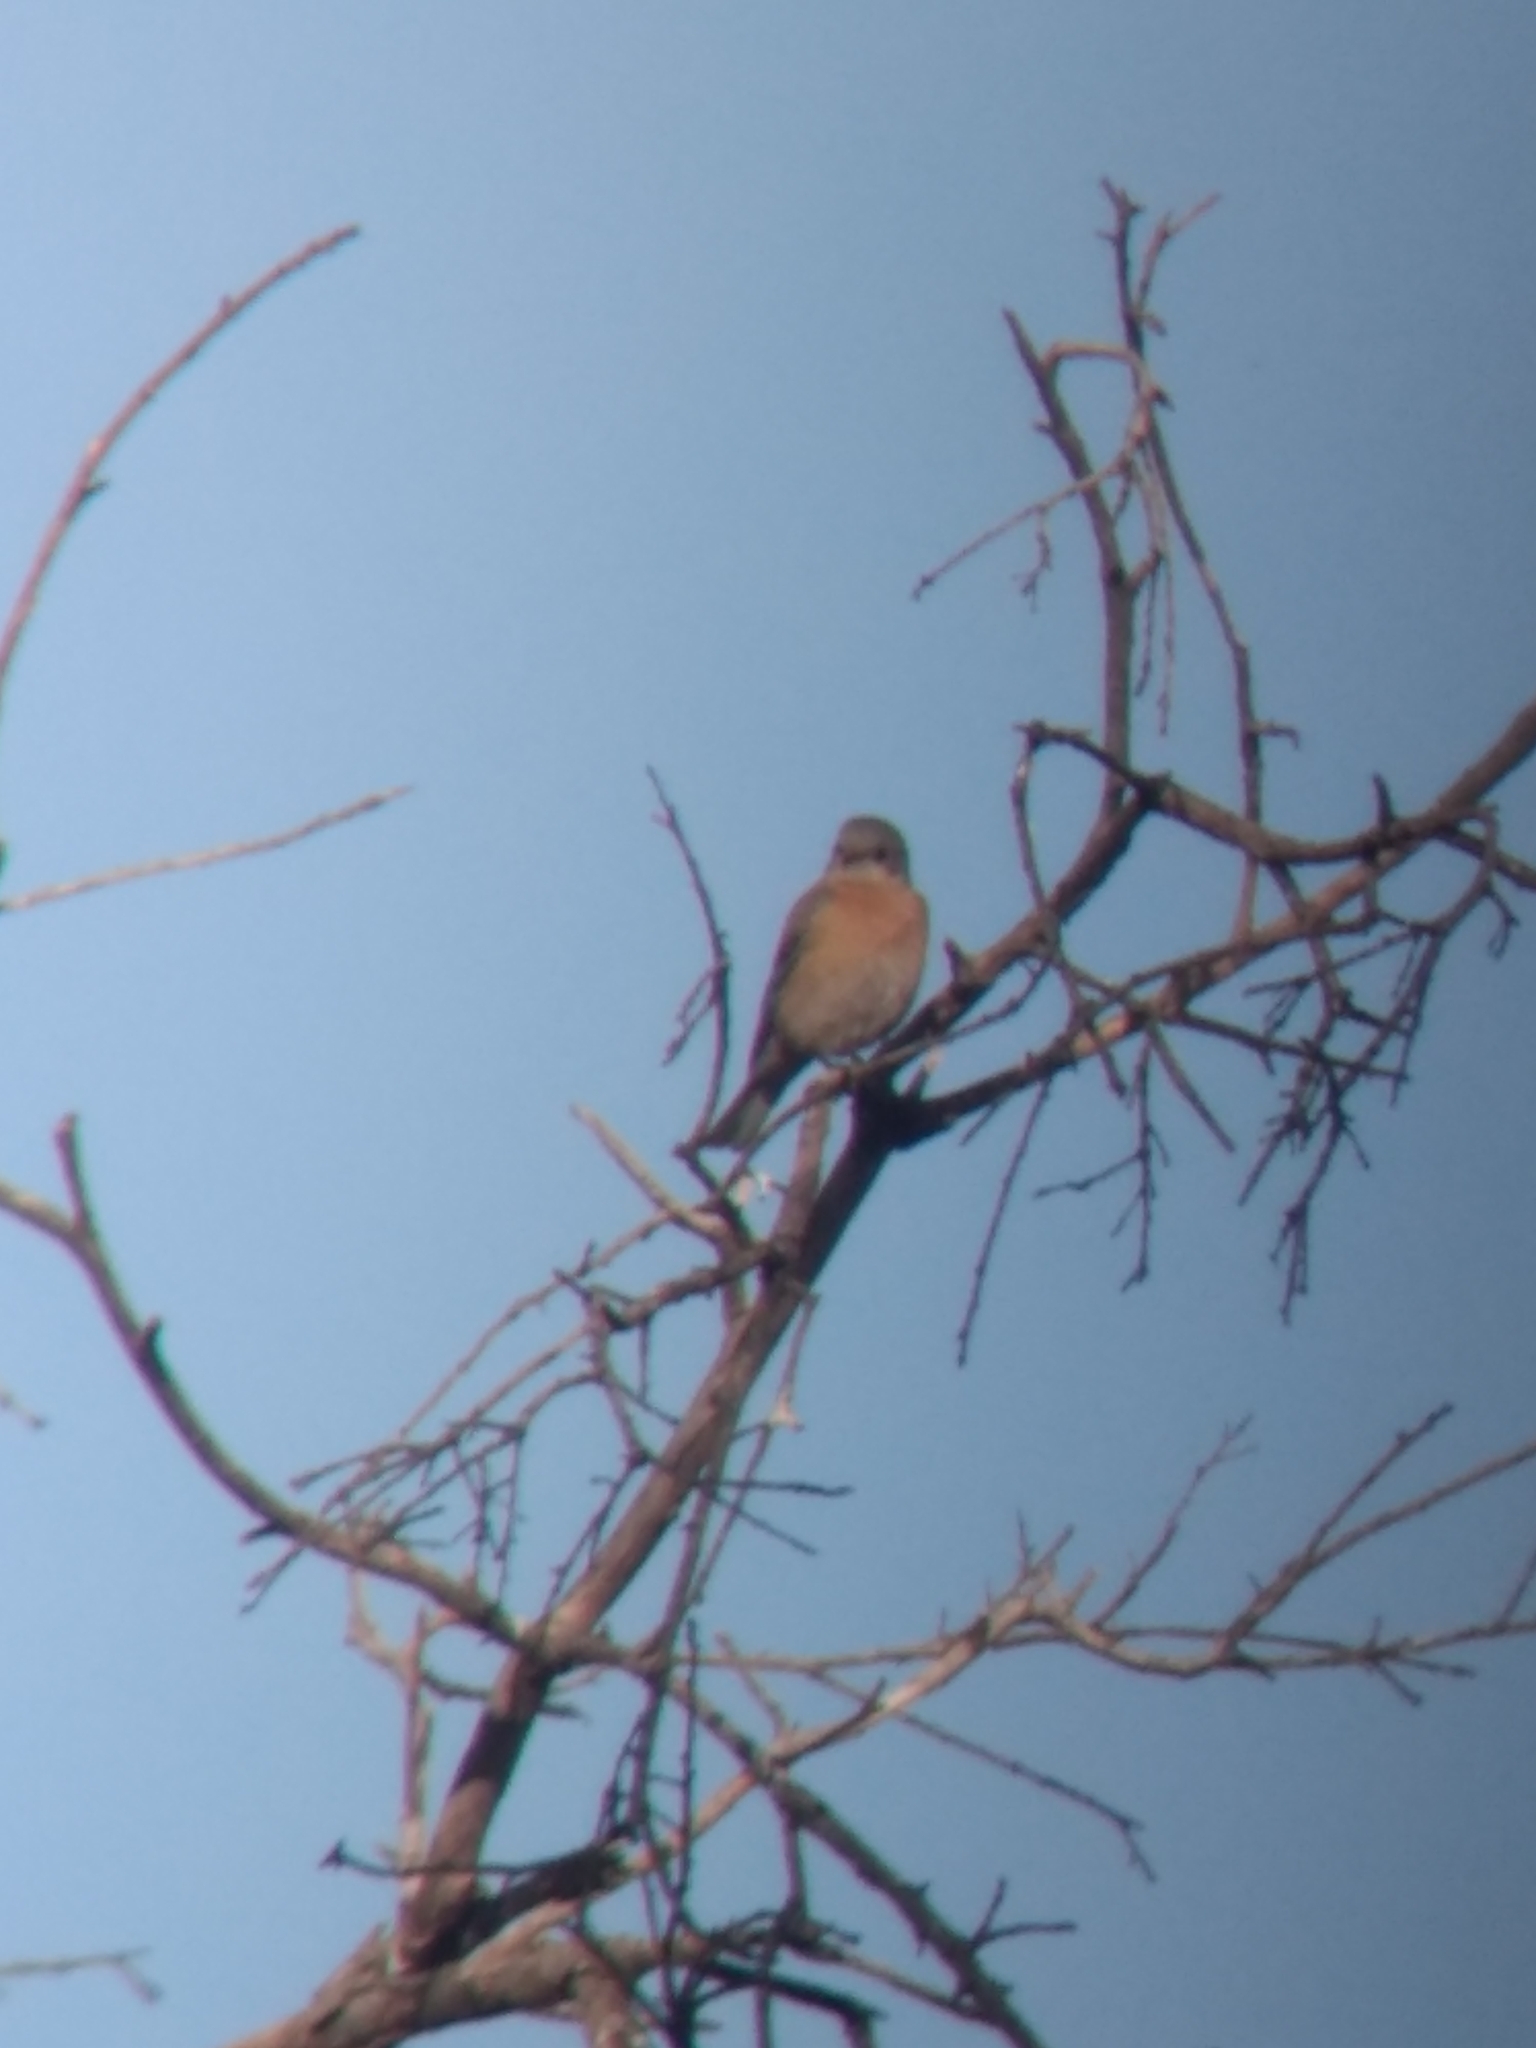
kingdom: Animalia
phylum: Chordata
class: Aves
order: Passeriformes
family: Turdidae
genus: Sialia
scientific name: Sialia mexicana
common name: Western bluebird
